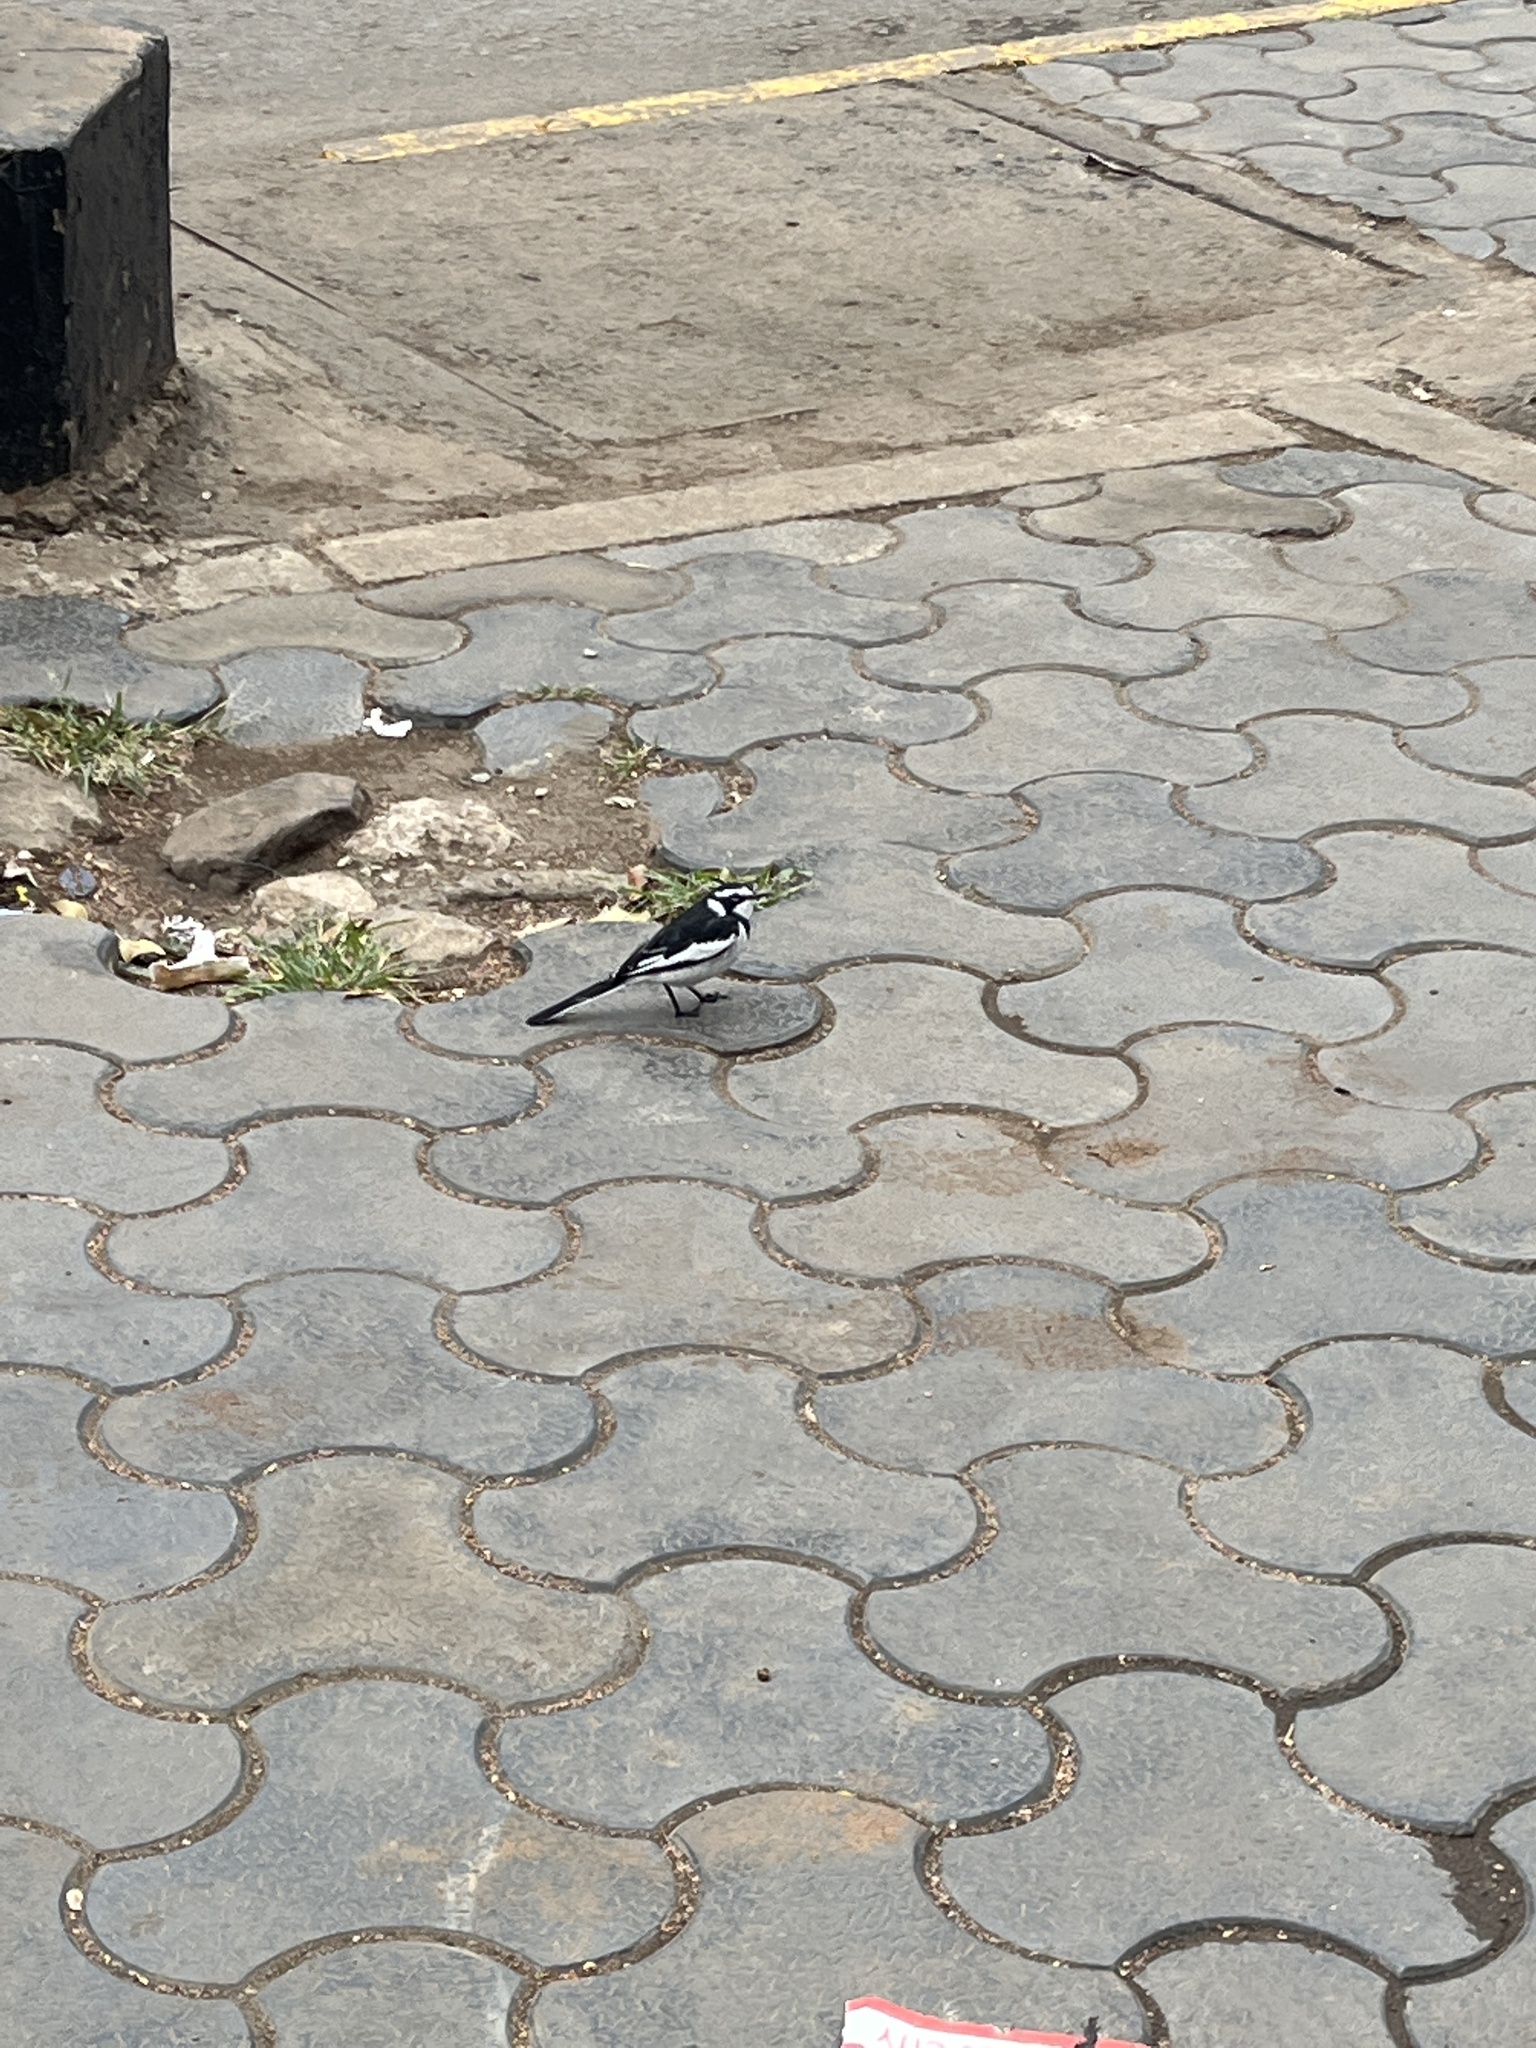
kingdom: Animalia
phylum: Chordata
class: Aves
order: Passeriformes
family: Motacillidae
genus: Motacilla
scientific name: Motacilla aguimp
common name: African pied wagtail
